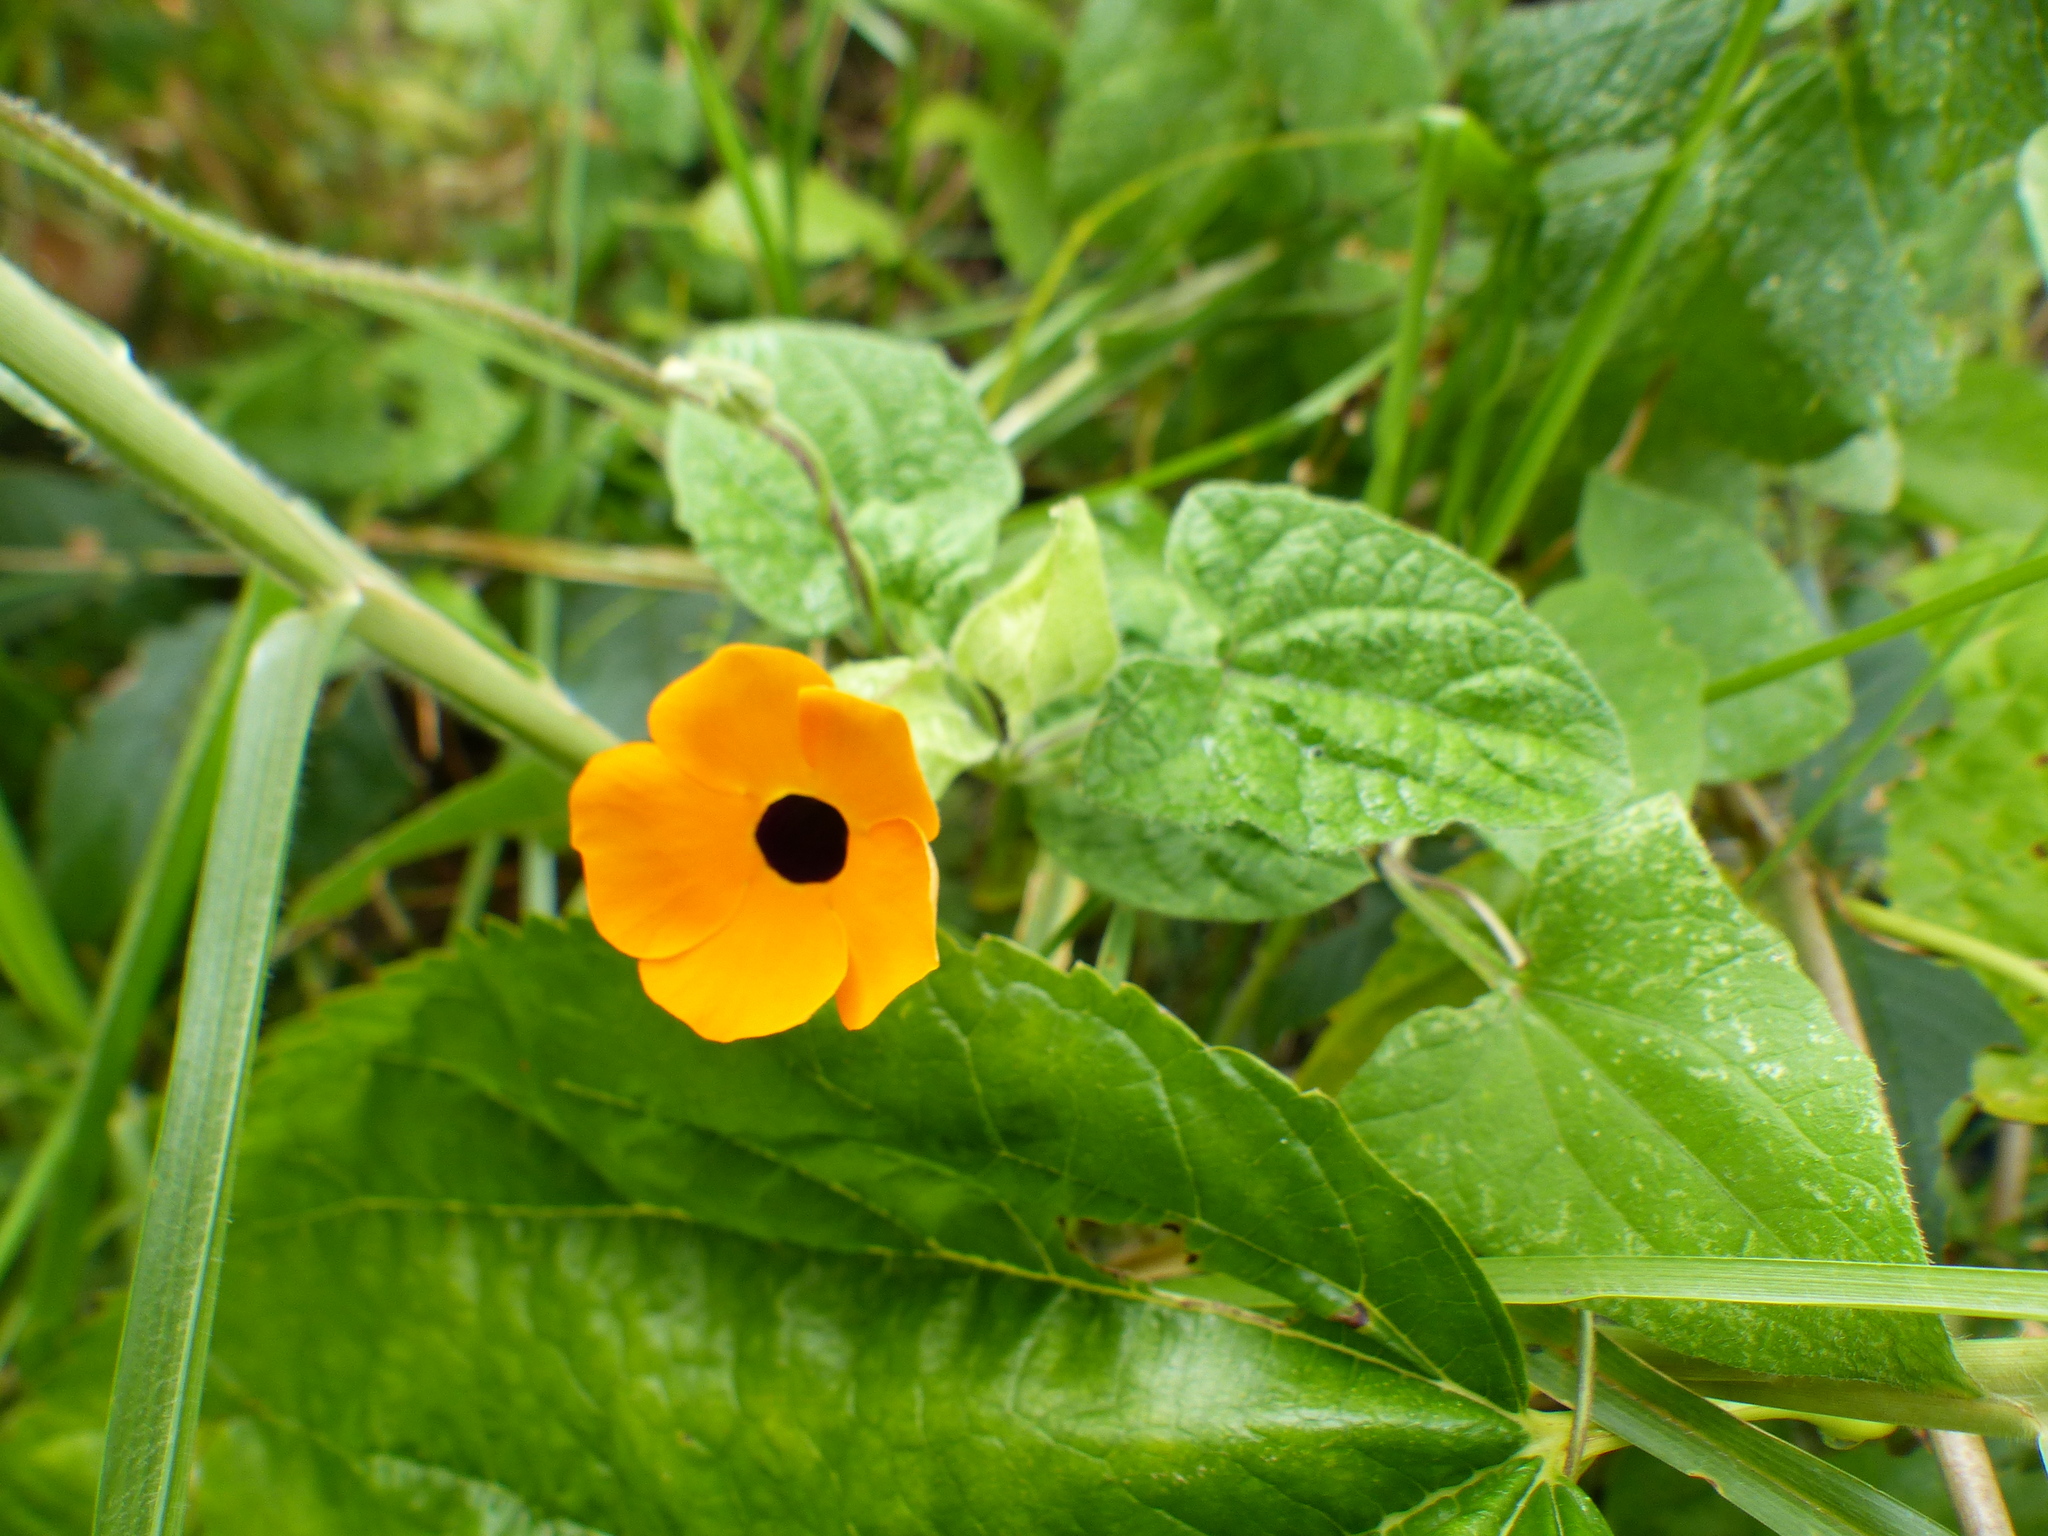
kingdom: Plantae
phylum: Tracheophyta
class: Magnoliopsida
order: Lamiales
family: Acanthaceae
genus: Thunbergia
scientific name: Thunbergia alata
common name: Blackeyed susan vine
